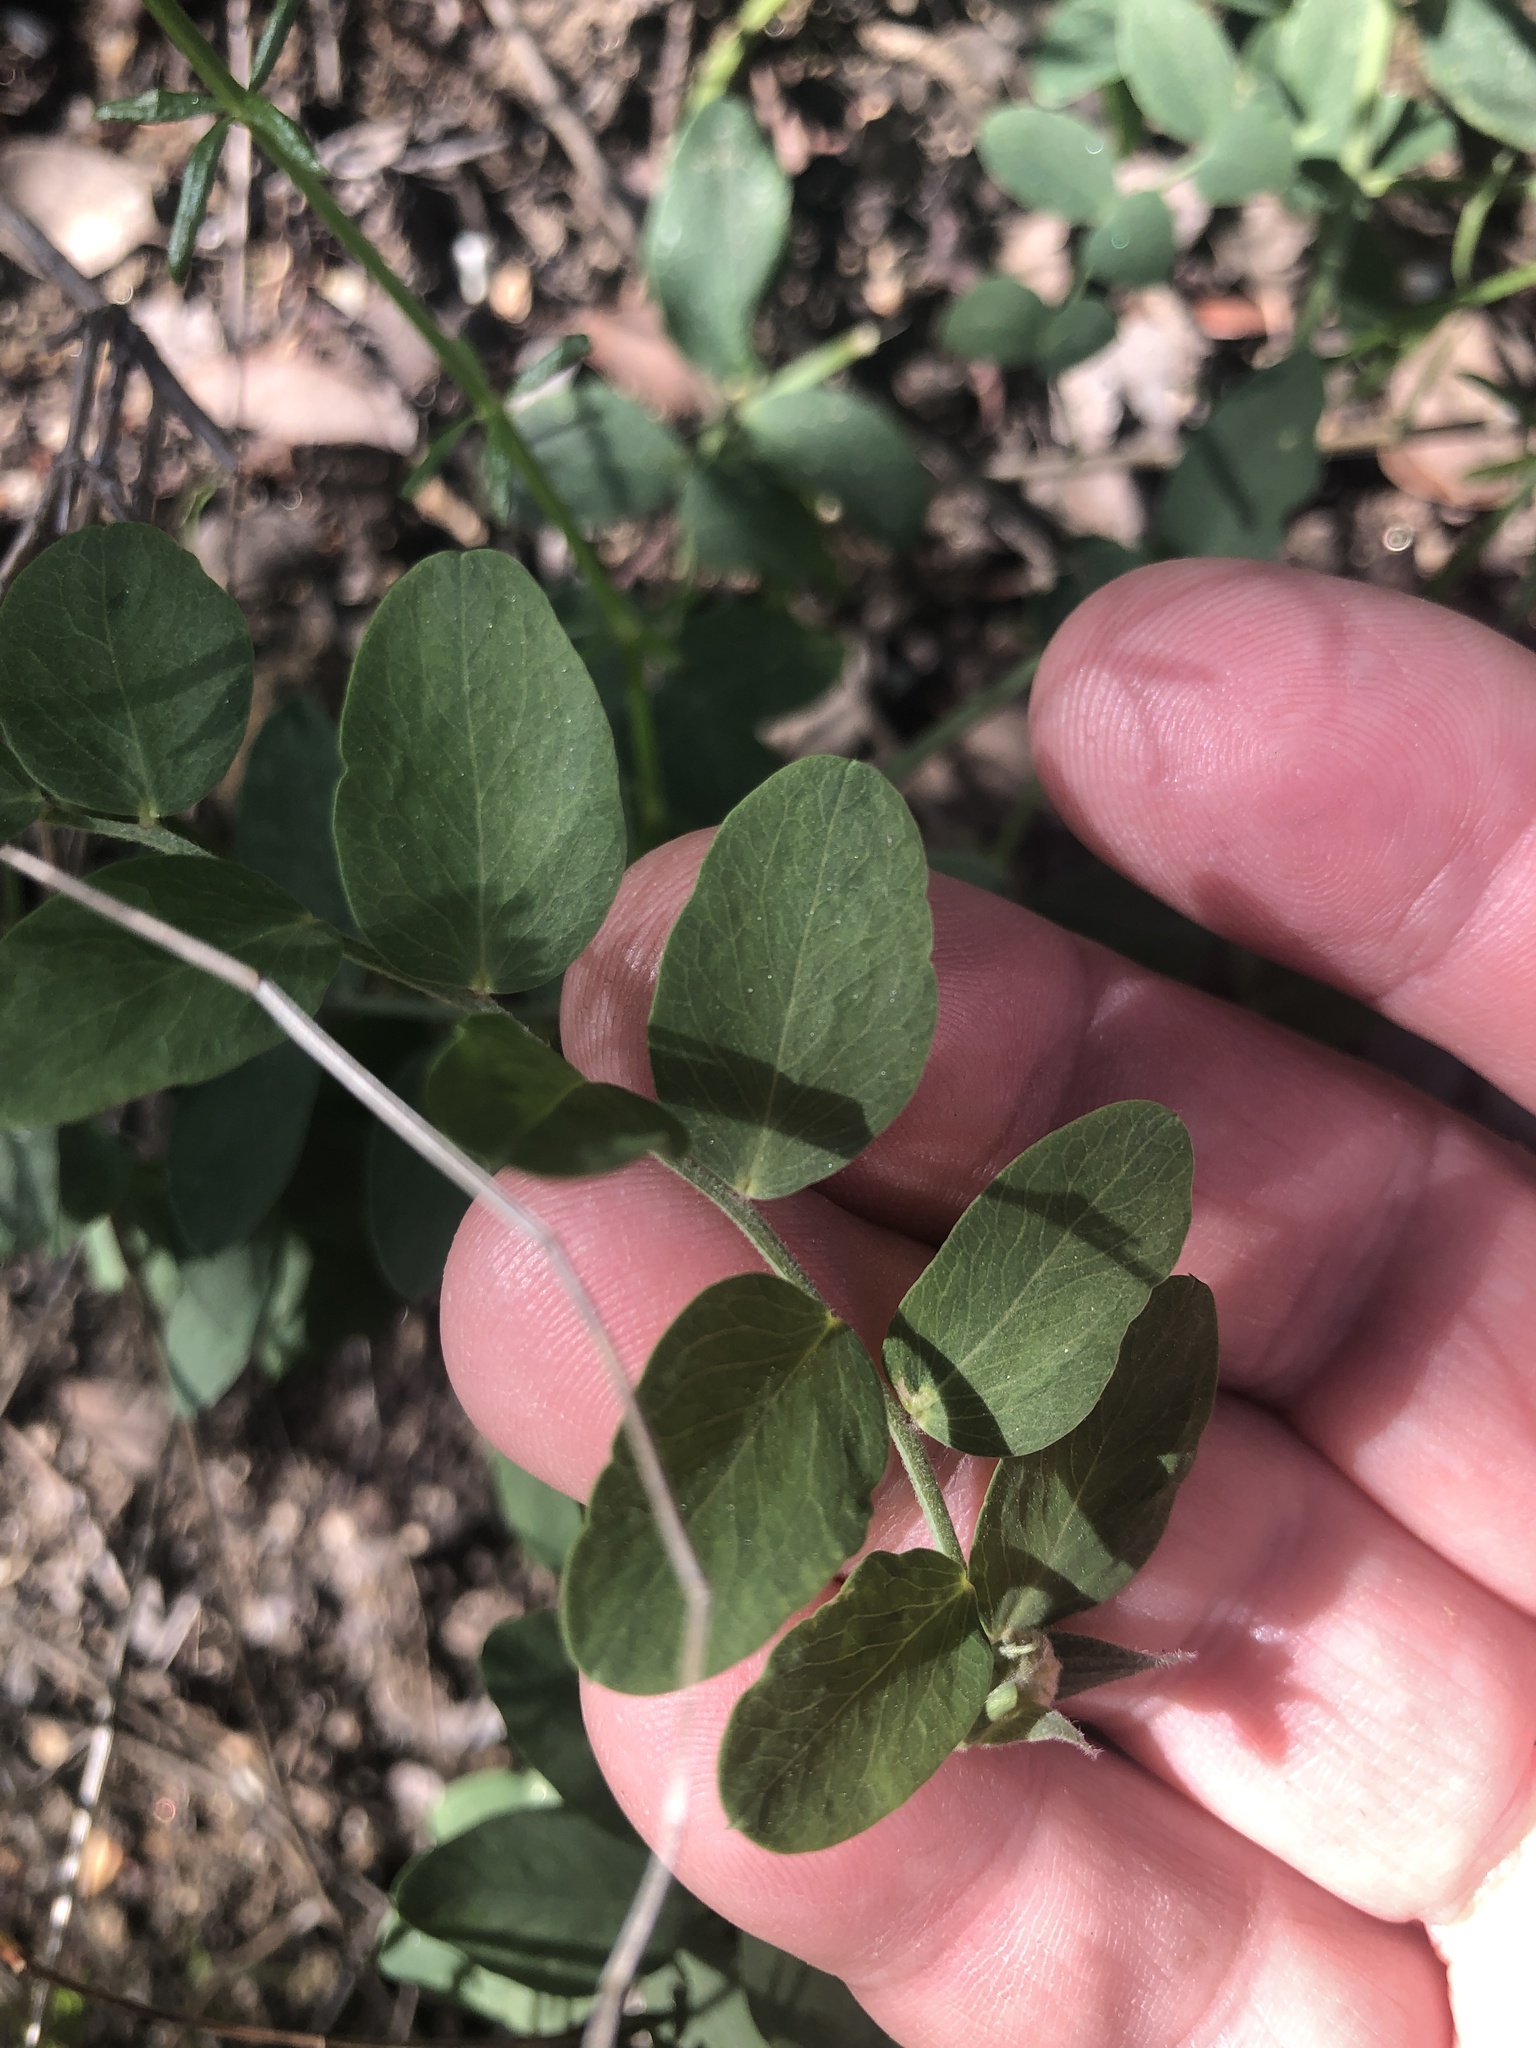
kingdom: Plantae
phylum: Tracheophyta
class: Magnoliopsida
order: Fabales
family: Fabaceae
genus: Lathyrus
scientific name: Lathyrus vestitus
